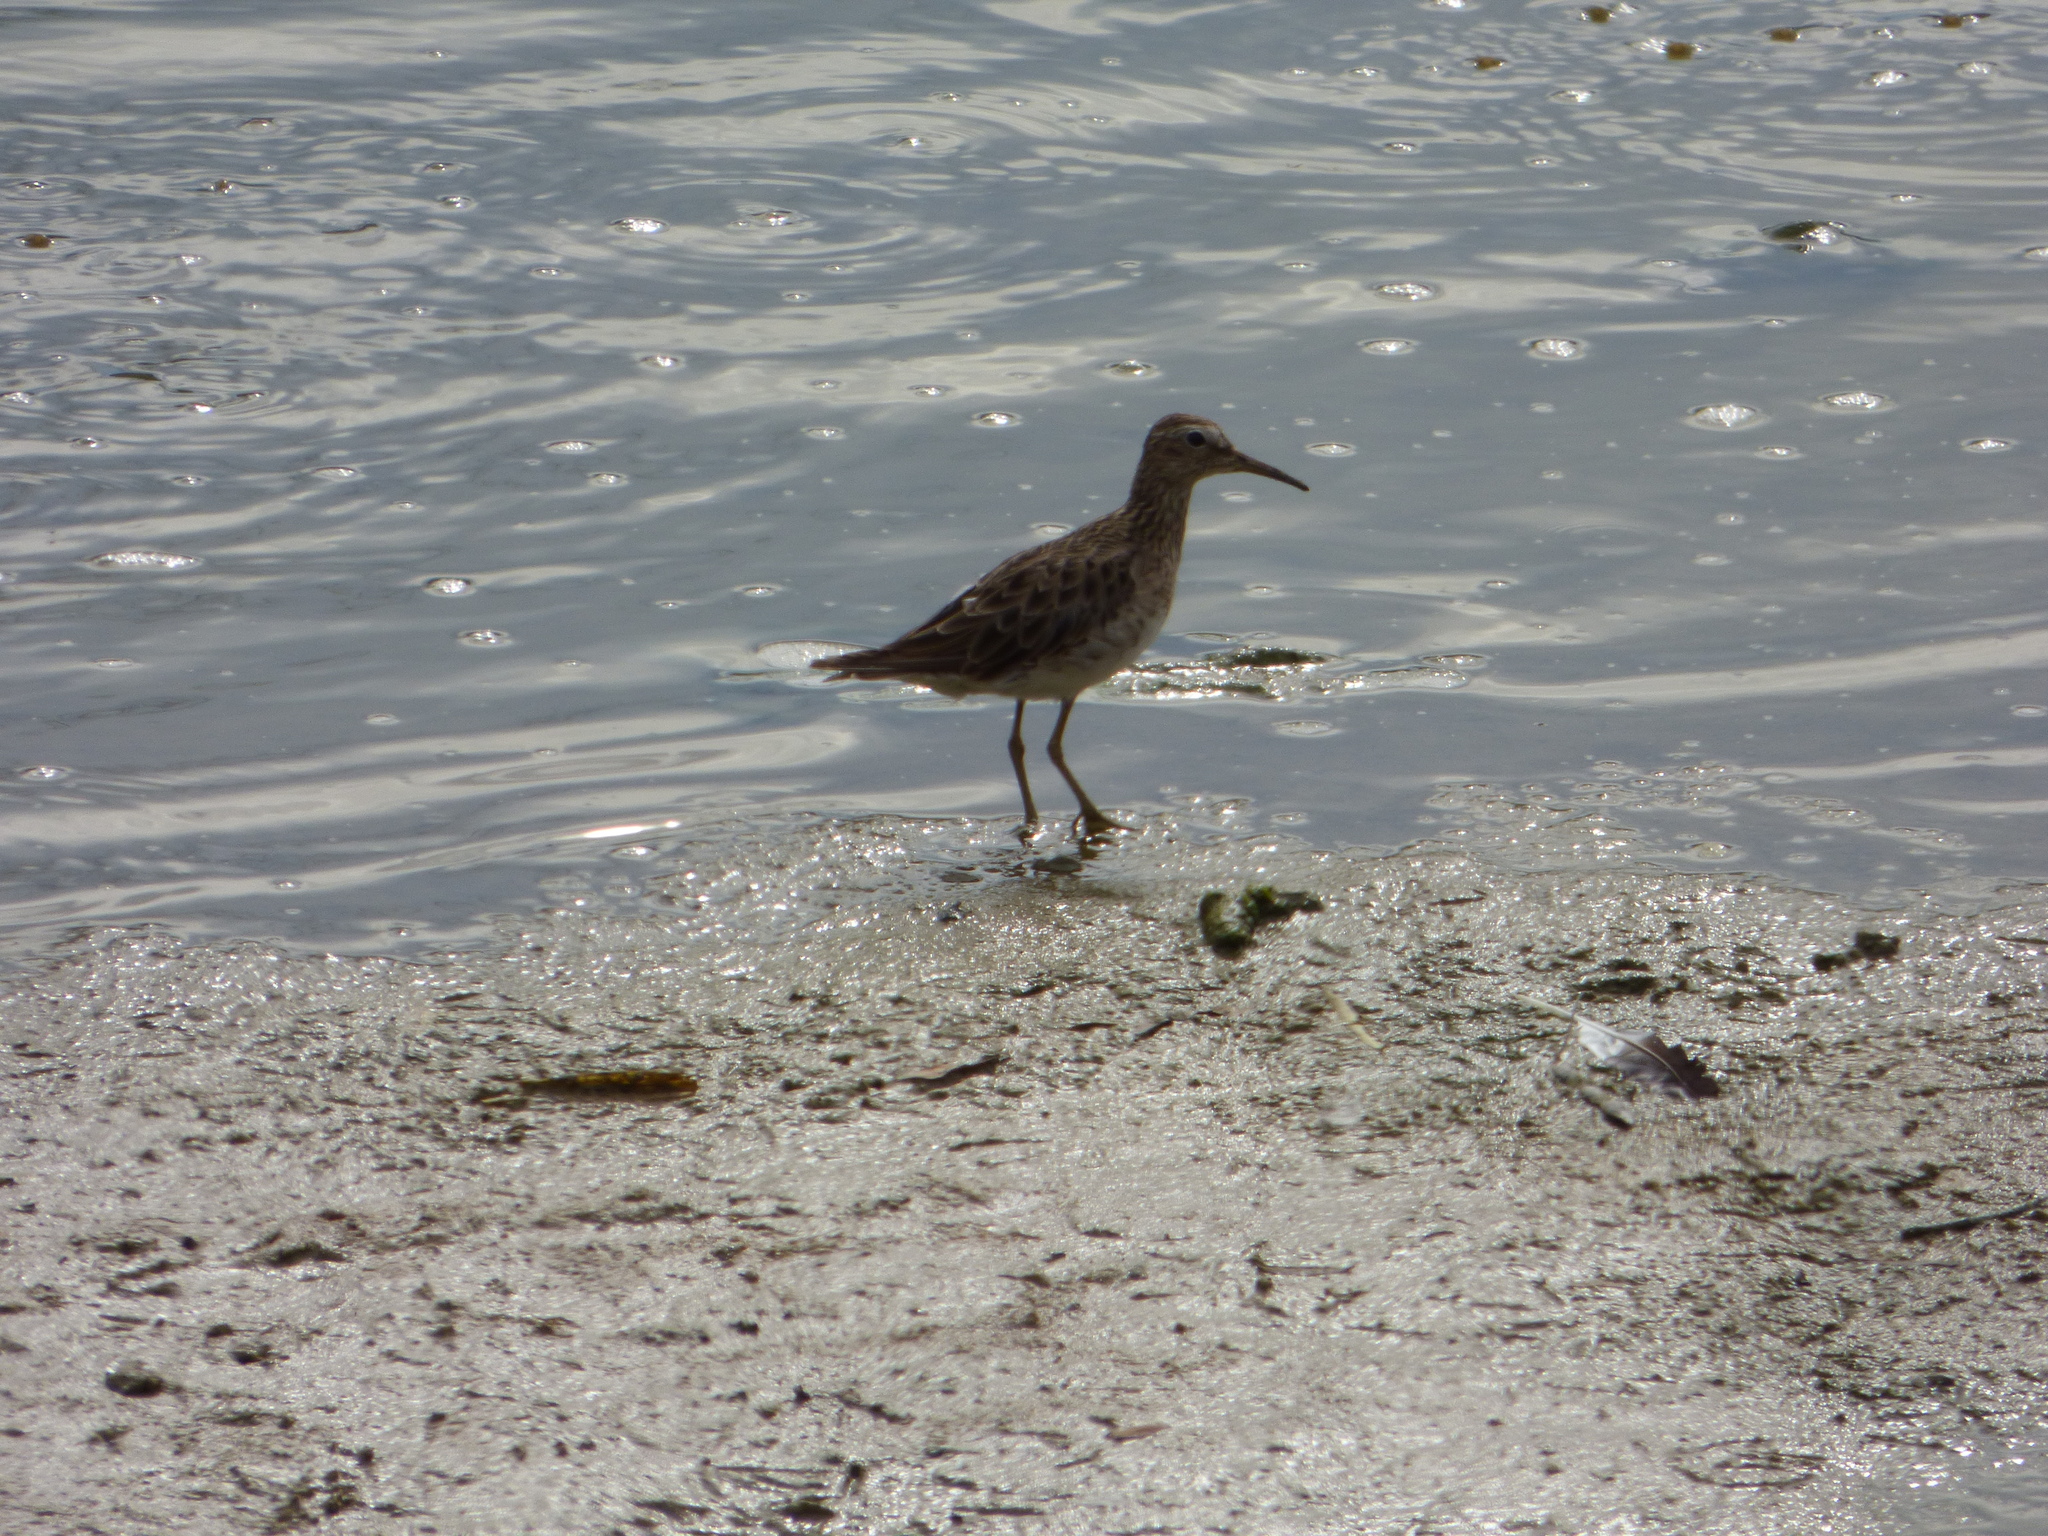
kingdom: Animalia
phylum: Chordata
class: Aves
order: Charadriiformes
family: Scolopacidae
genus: Calidris
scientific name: Calidris melanotos
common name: Pectoral sandpiper
